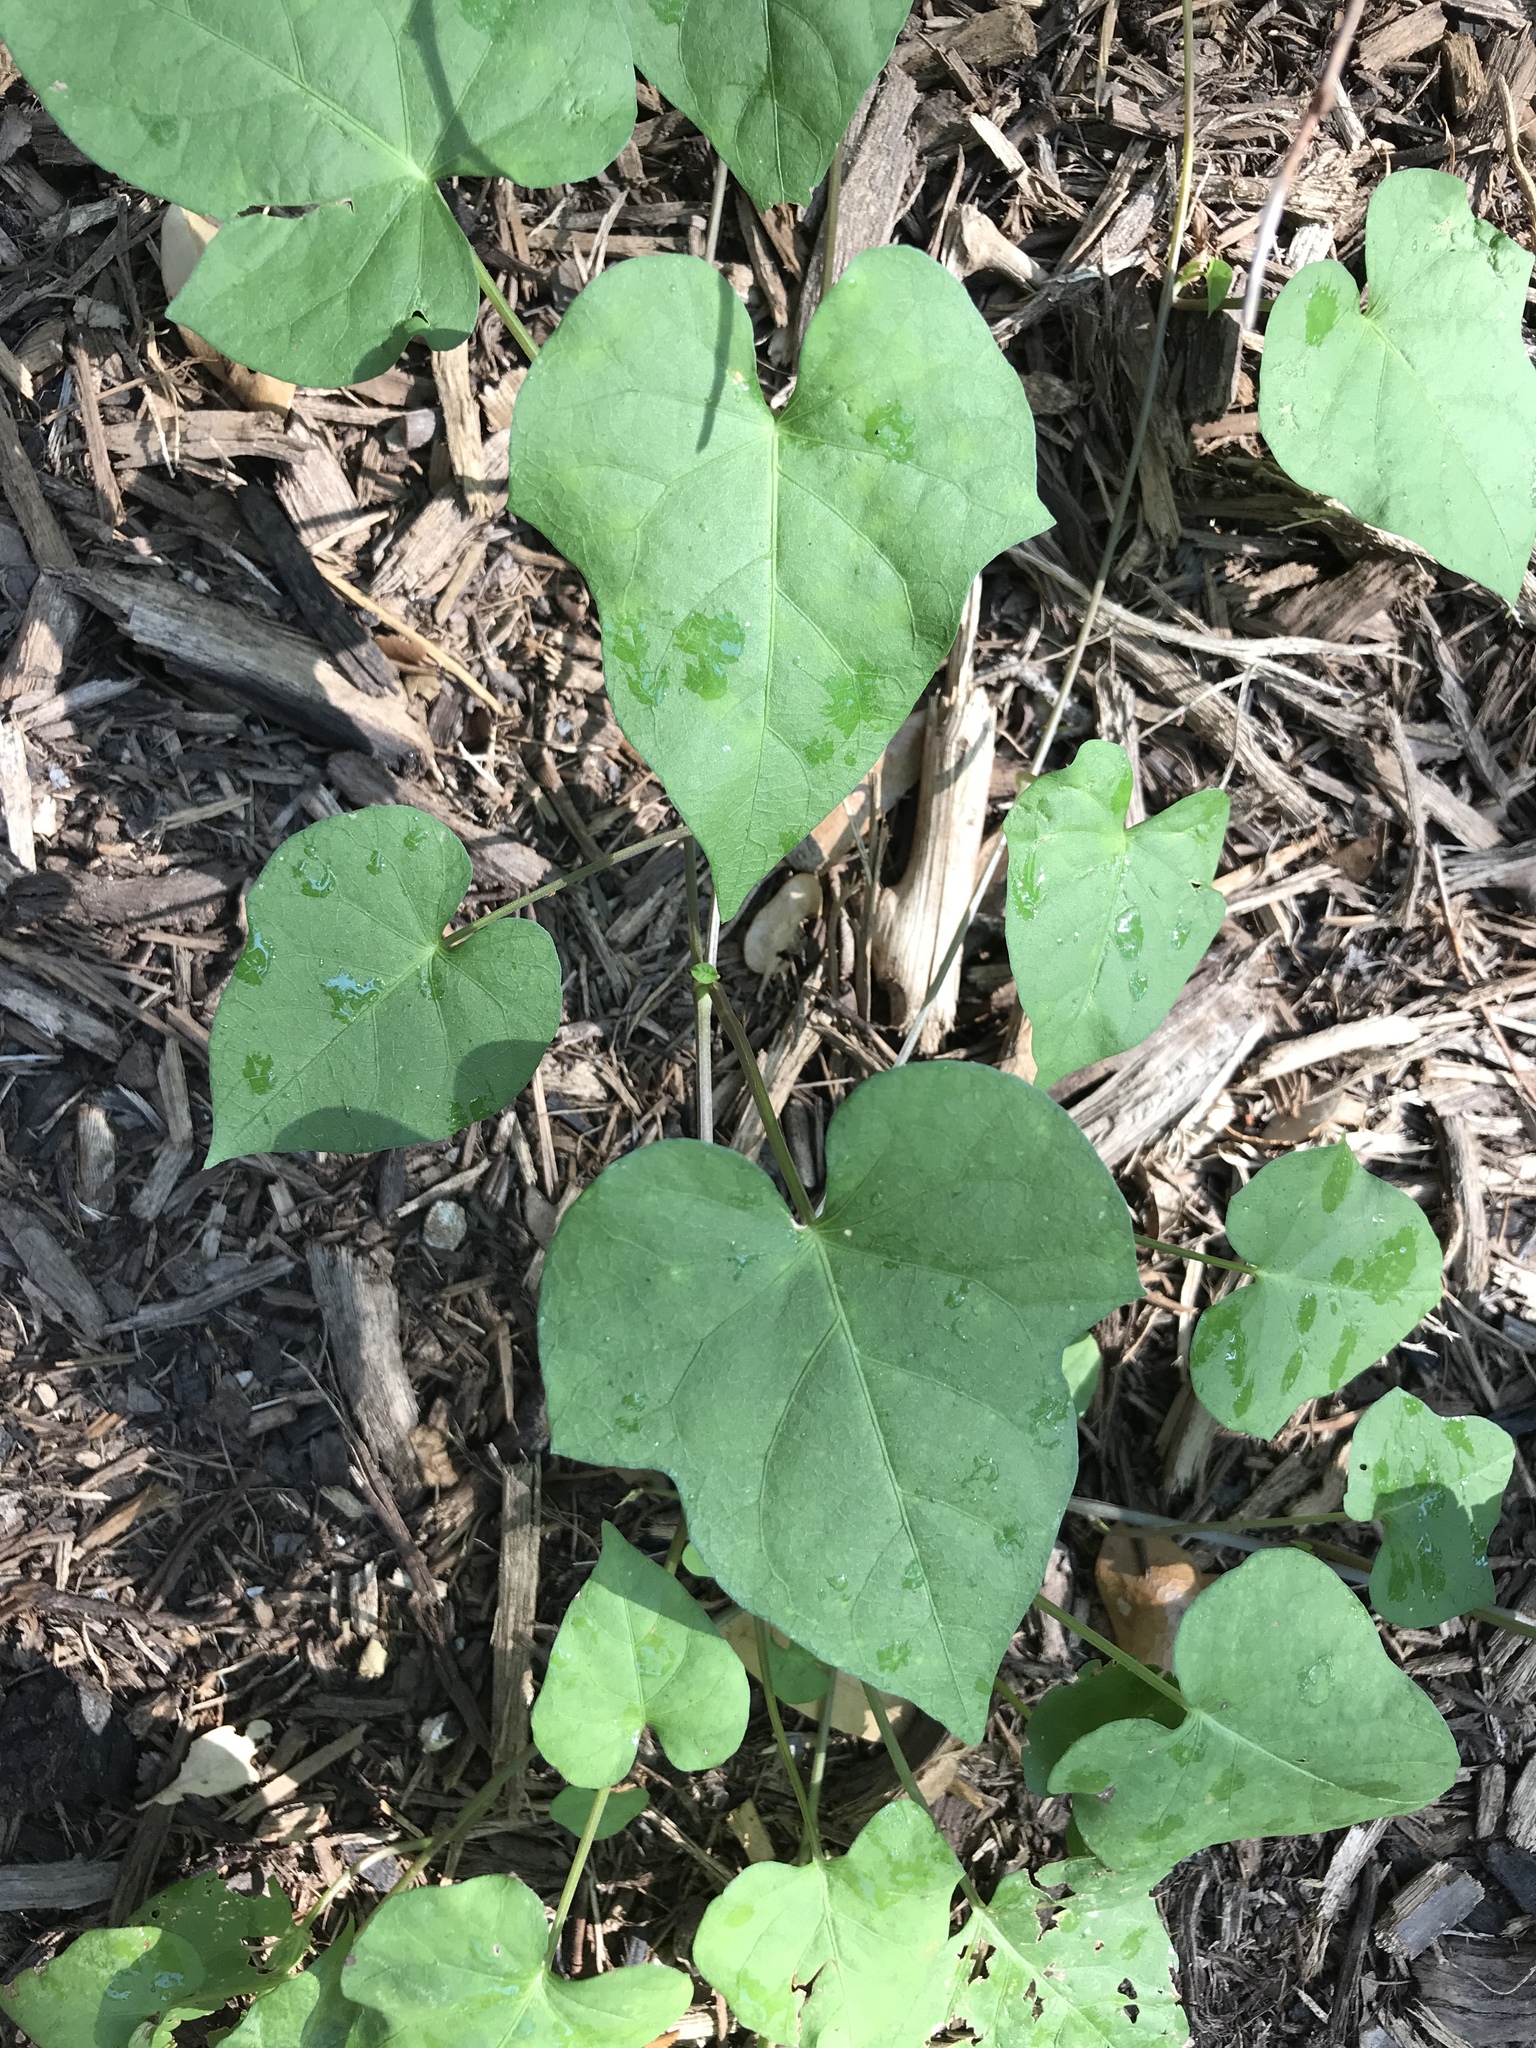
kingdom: Plantae
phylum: Tracheophyta
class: Magnoliopsida
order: Solanales
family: Convolvulaceae
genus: Ipomoea
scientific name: Ipomoea cordatotriloba
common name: Cotton morning glory
